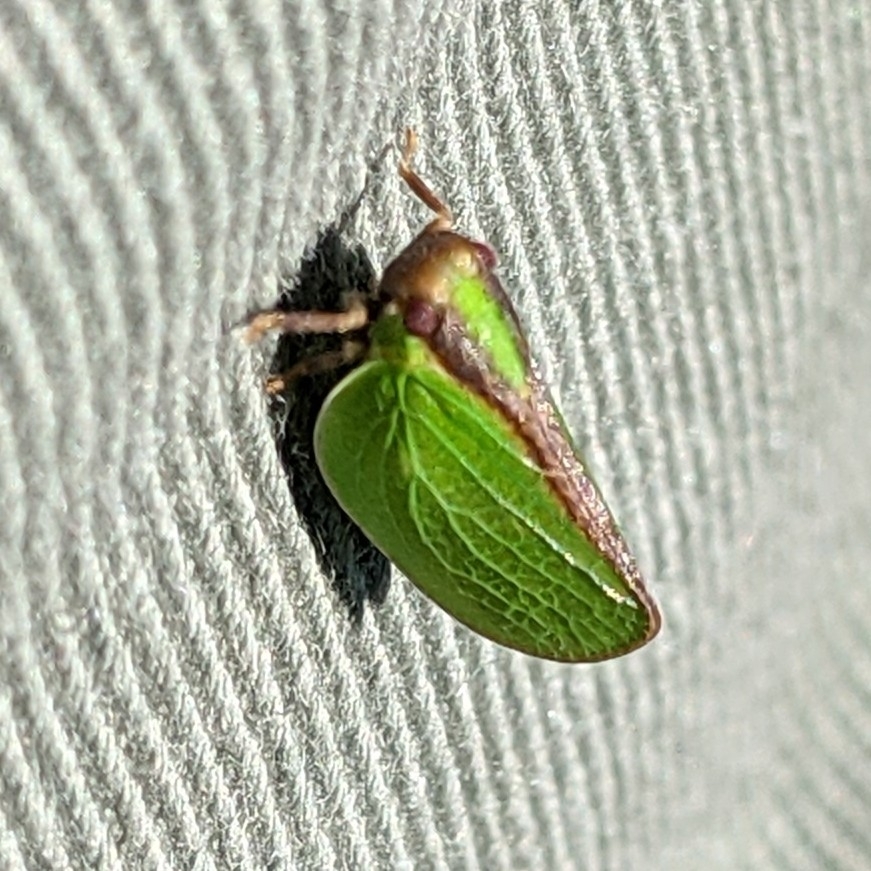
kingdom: Animalia
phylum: Arthropoda
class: Insecta
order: Hemiptera
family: Acanaloniidae
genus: Acanalonia
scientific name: Acanalonia bivittata
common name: Two-striped planthopper
